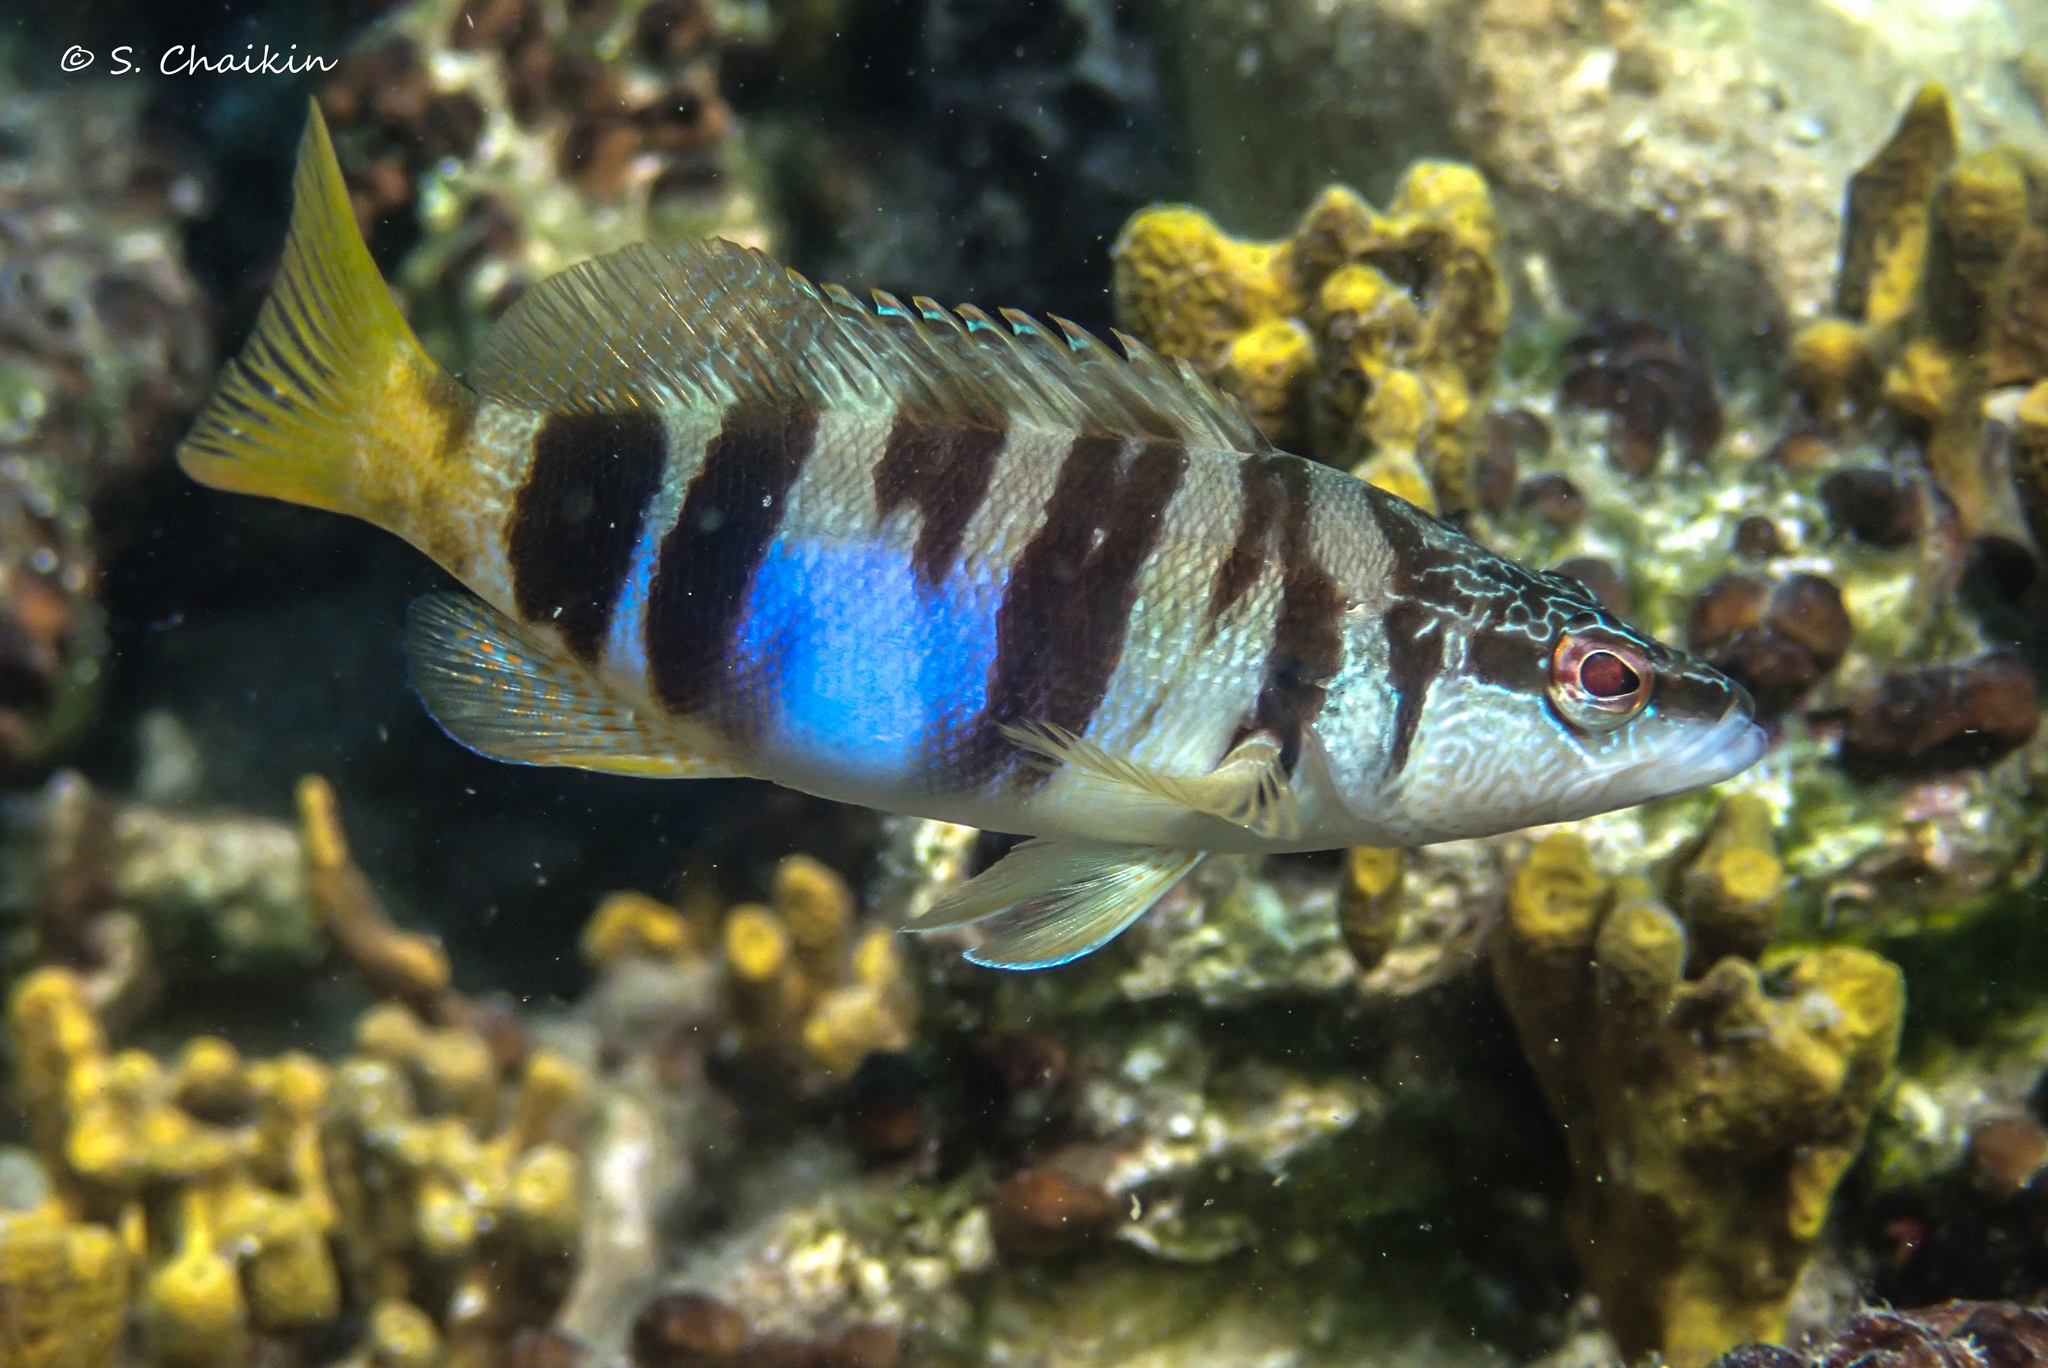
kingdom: Animalia
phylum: Chordata
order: Perciformes
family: Serranidae
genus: Serranus
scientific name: Serranus scriba
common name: Painted comber
